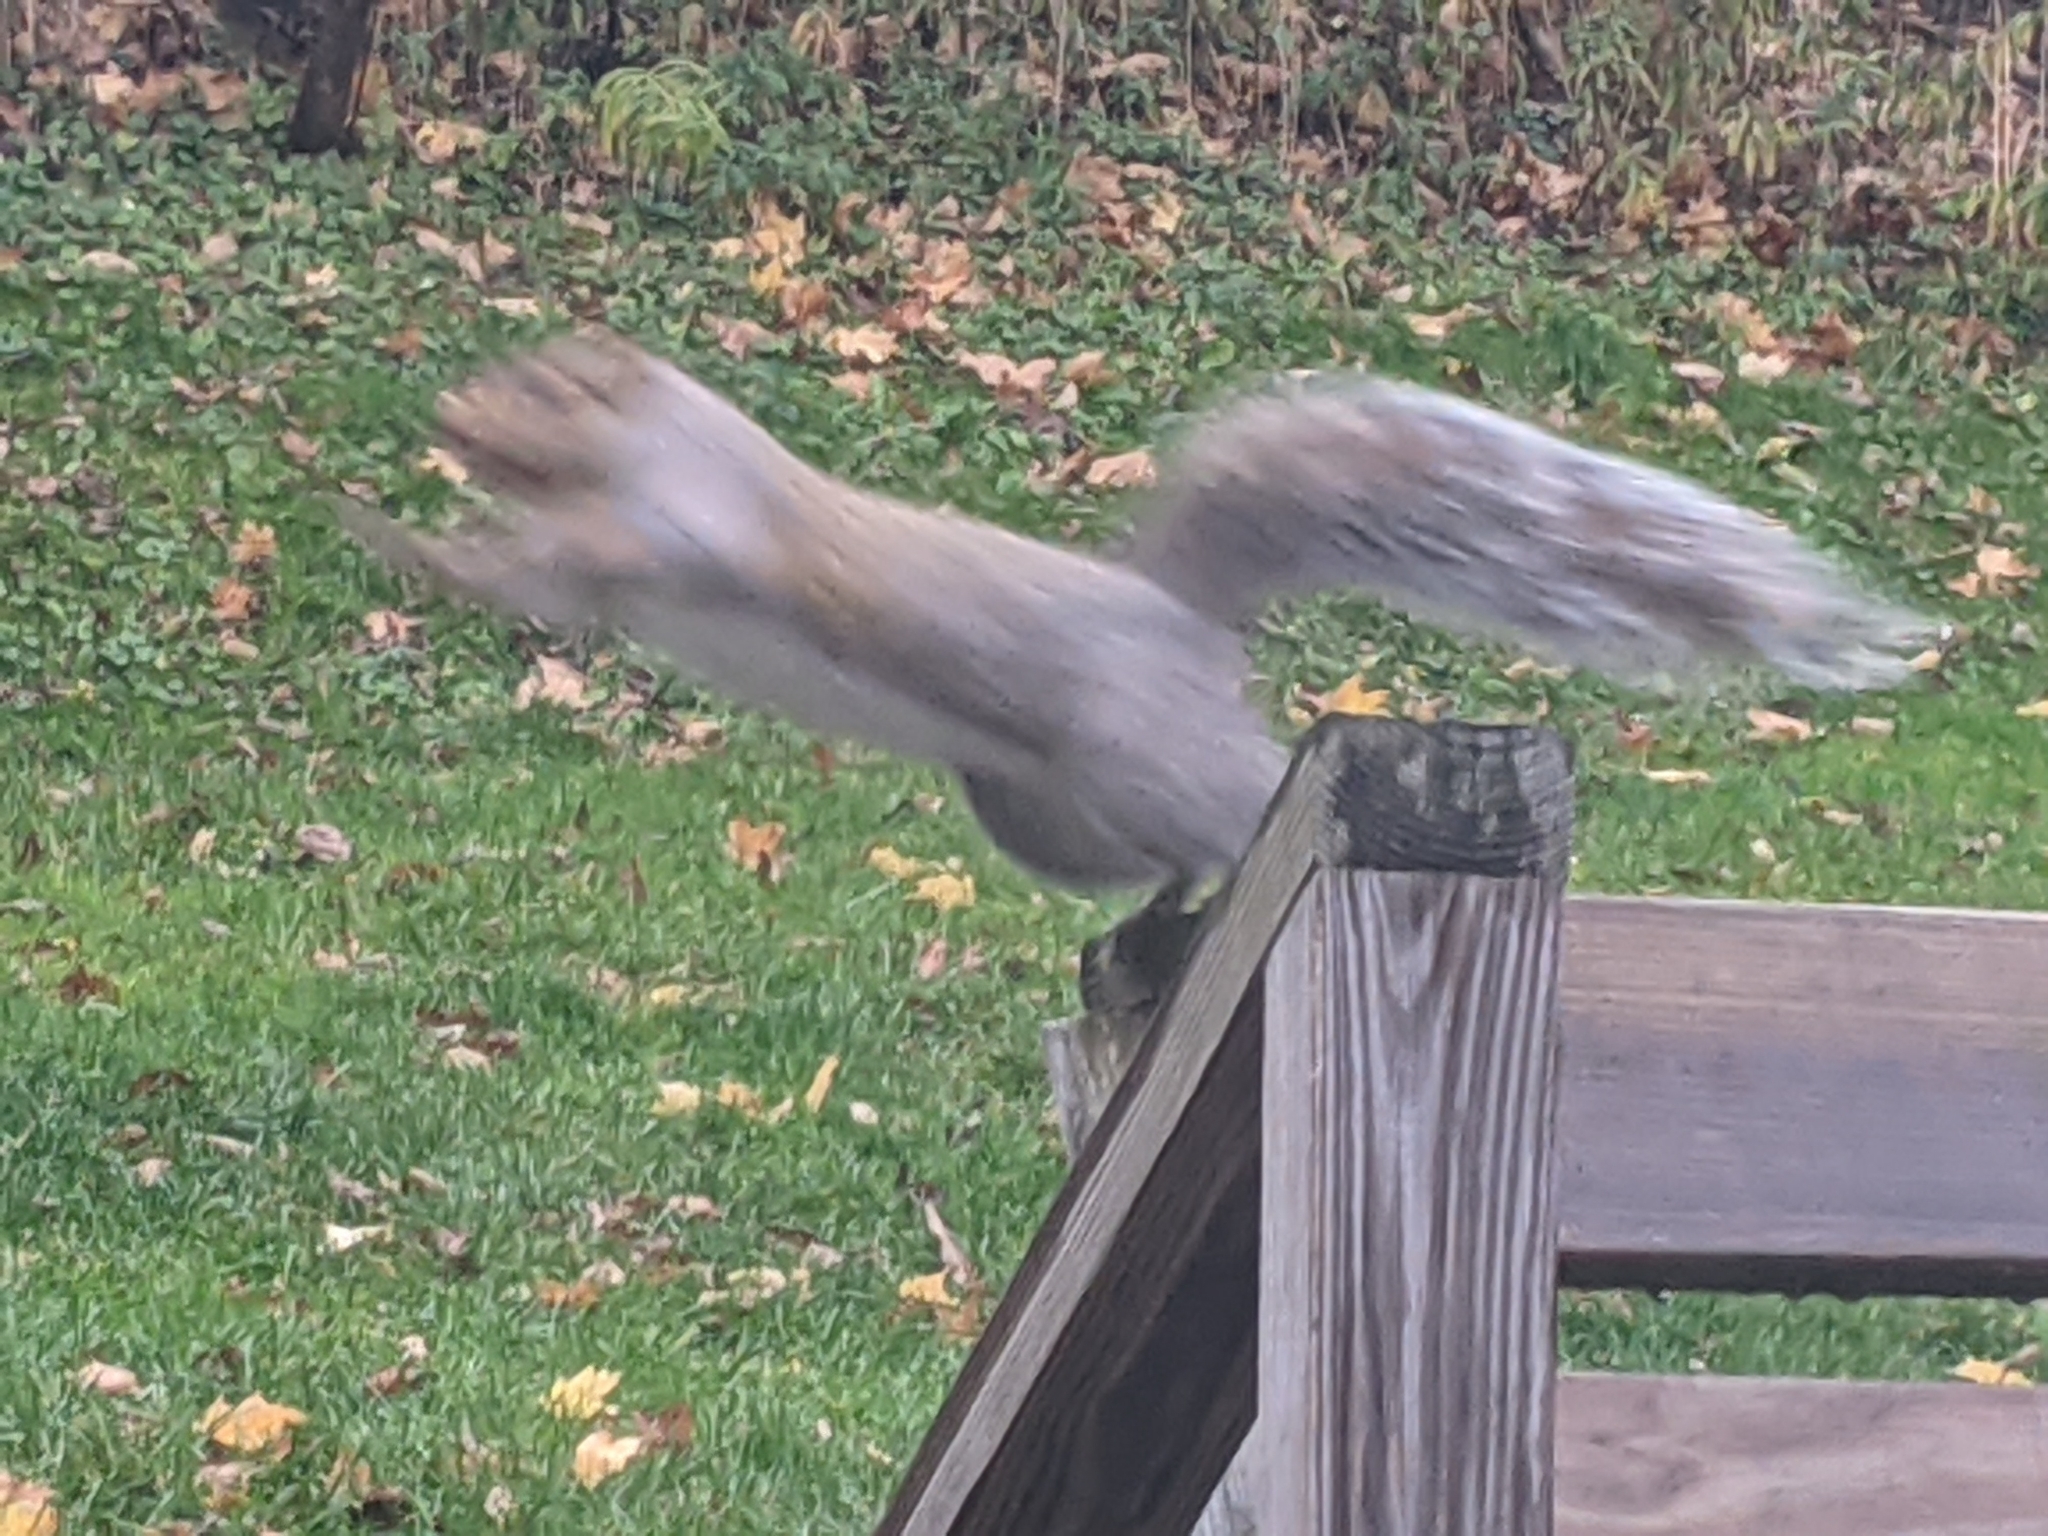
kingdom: Animalia
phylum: Chordata
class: Mammalia
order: Rodentia
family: Sciuridae
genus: Sciurus
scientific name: Sciurus carolinensis
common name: Eastern gray squirrel
